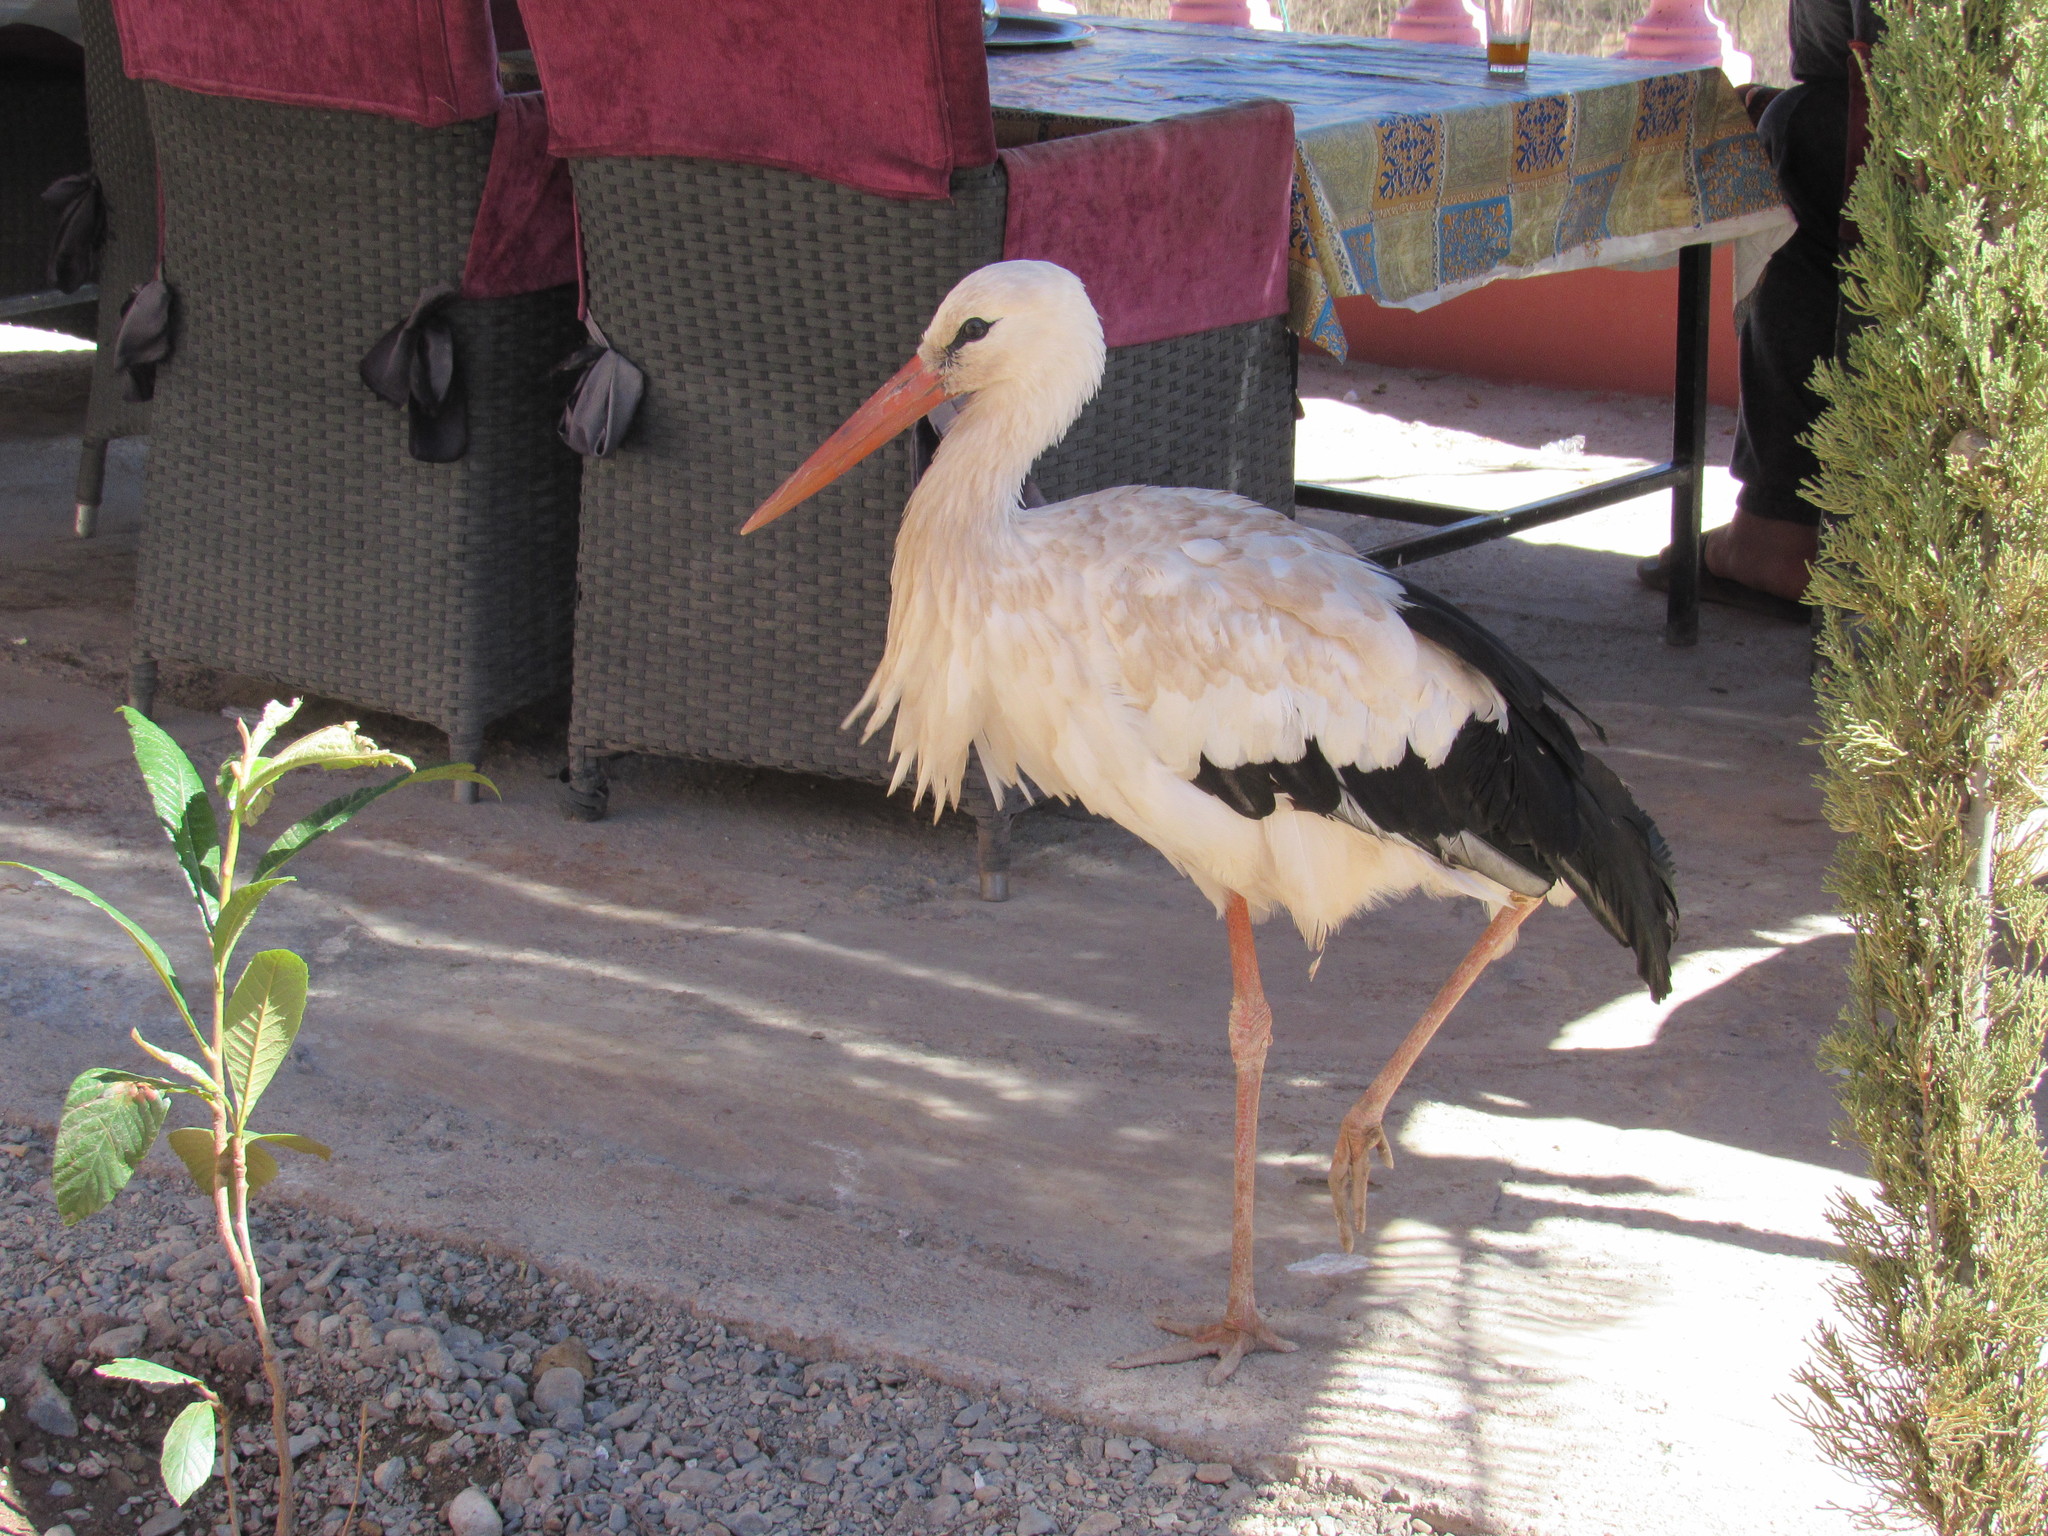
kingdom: Animalia
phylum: Chordata
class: Aves
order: Ciconiiformes
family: Ciconiidae
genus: Ciconia
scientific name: Ciconia ciconia
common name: White stork
